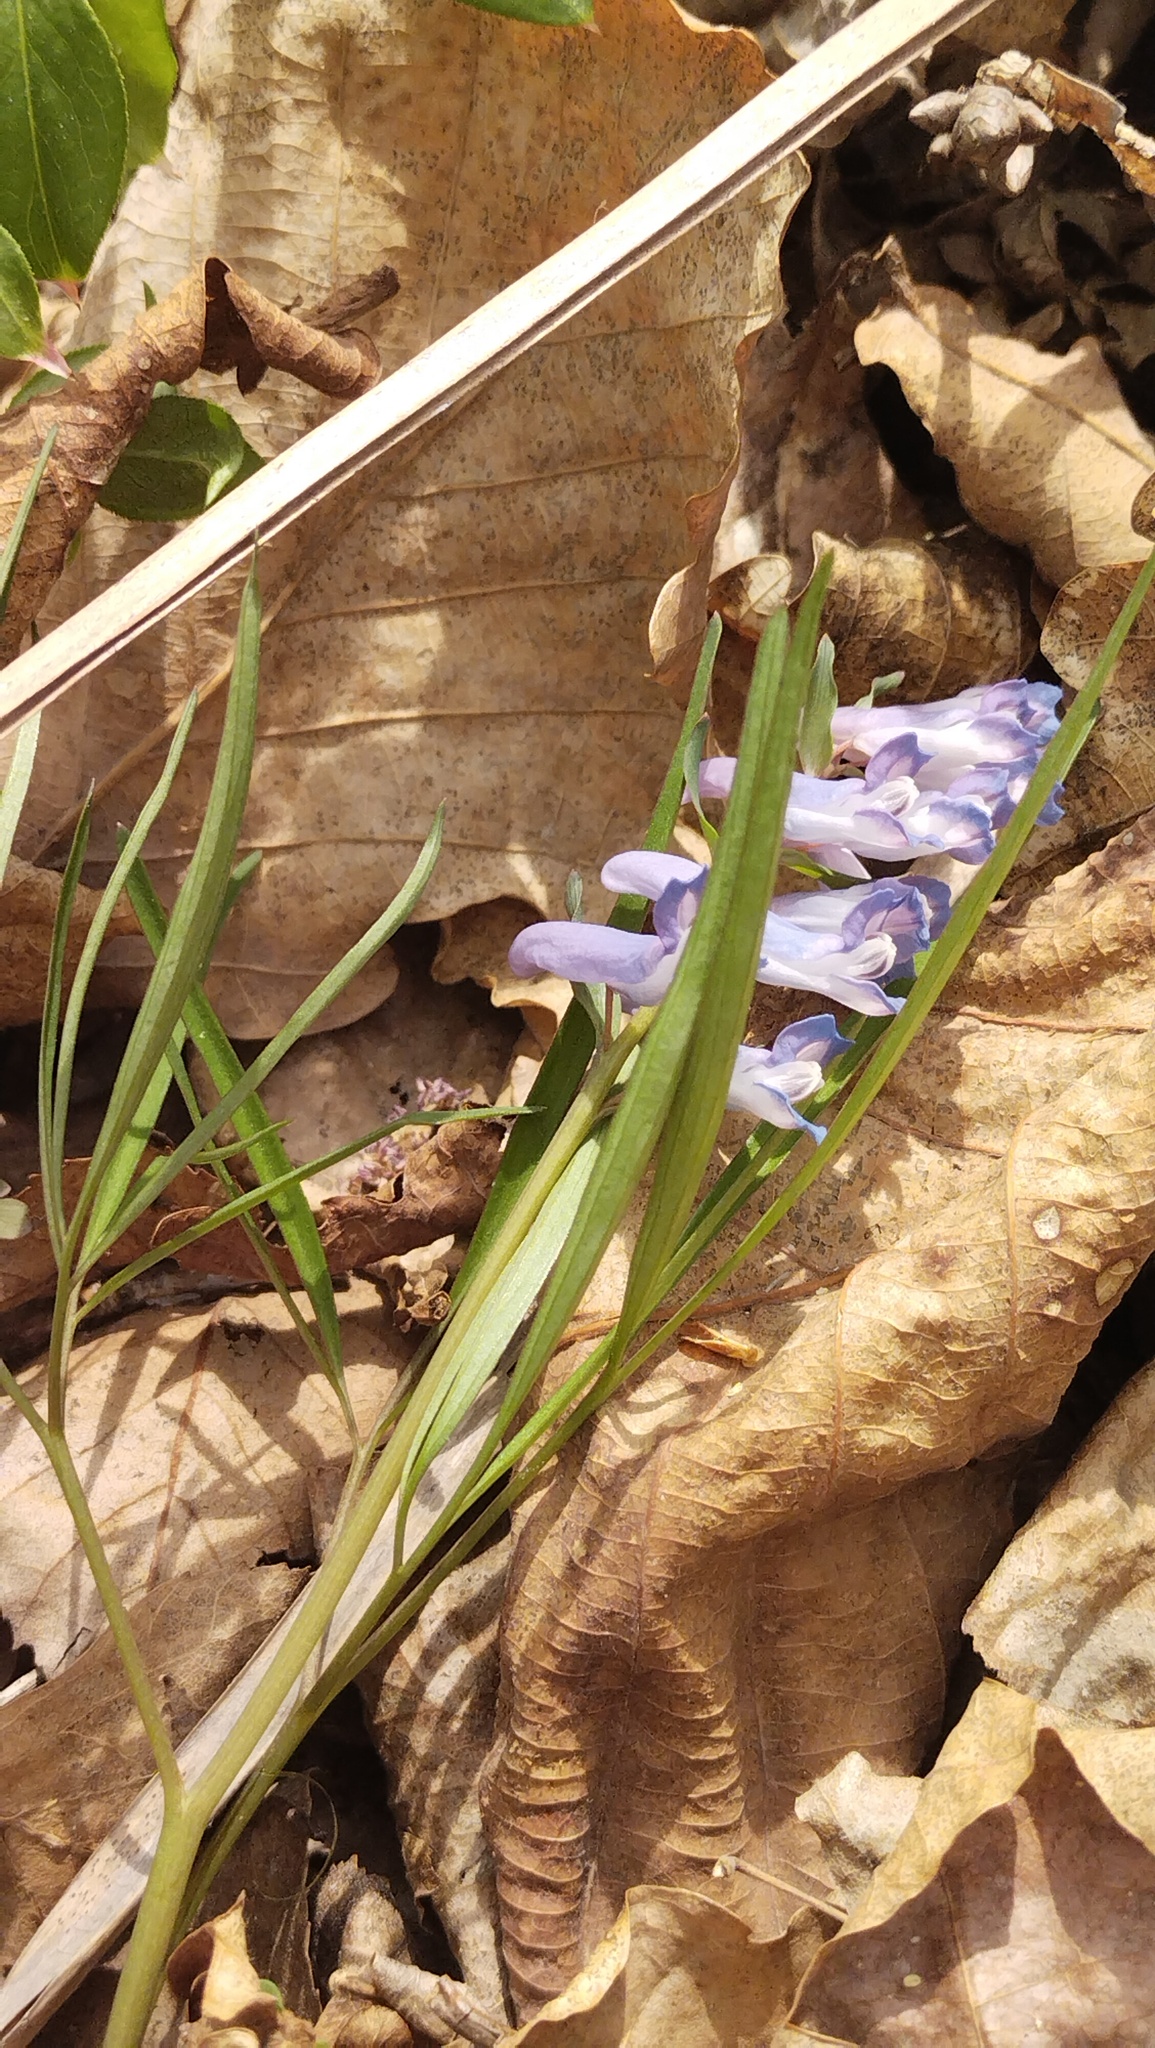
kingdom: Plantae
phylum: Tracheophyta
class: Magnoliopsida
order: Ranunculales
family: Papaveraceae
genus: Corydalis
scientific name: Corydalis ambigua
